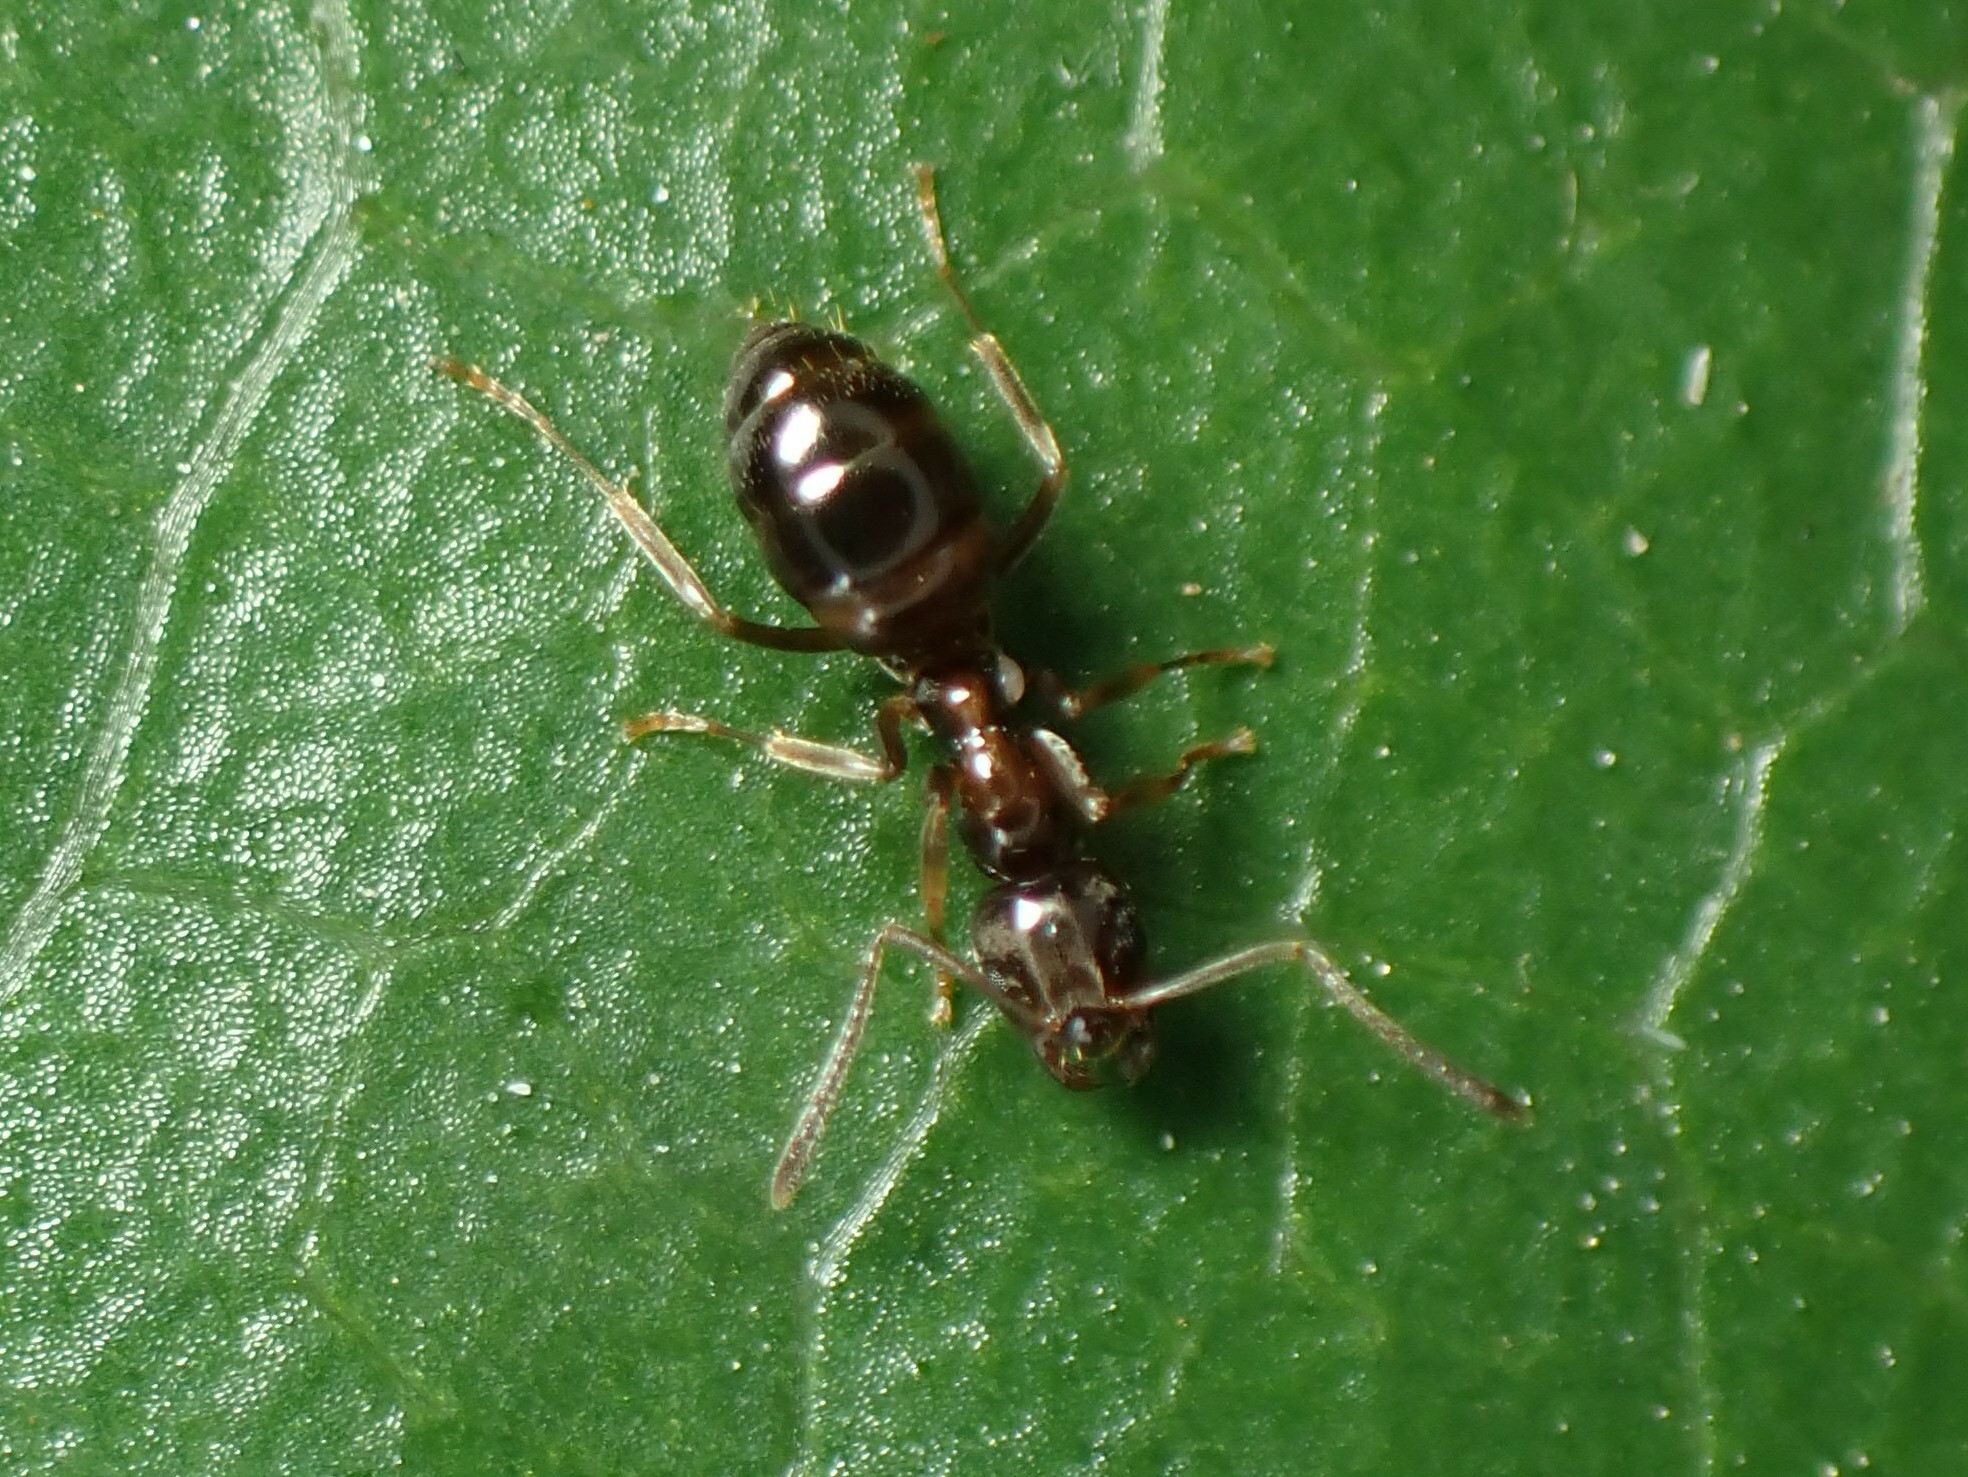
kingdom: Animalia
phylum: Arthropoda
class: Insecta
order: Hymenoptera
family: Formicidae
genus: Prolasius
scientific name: Prolasius advenus
